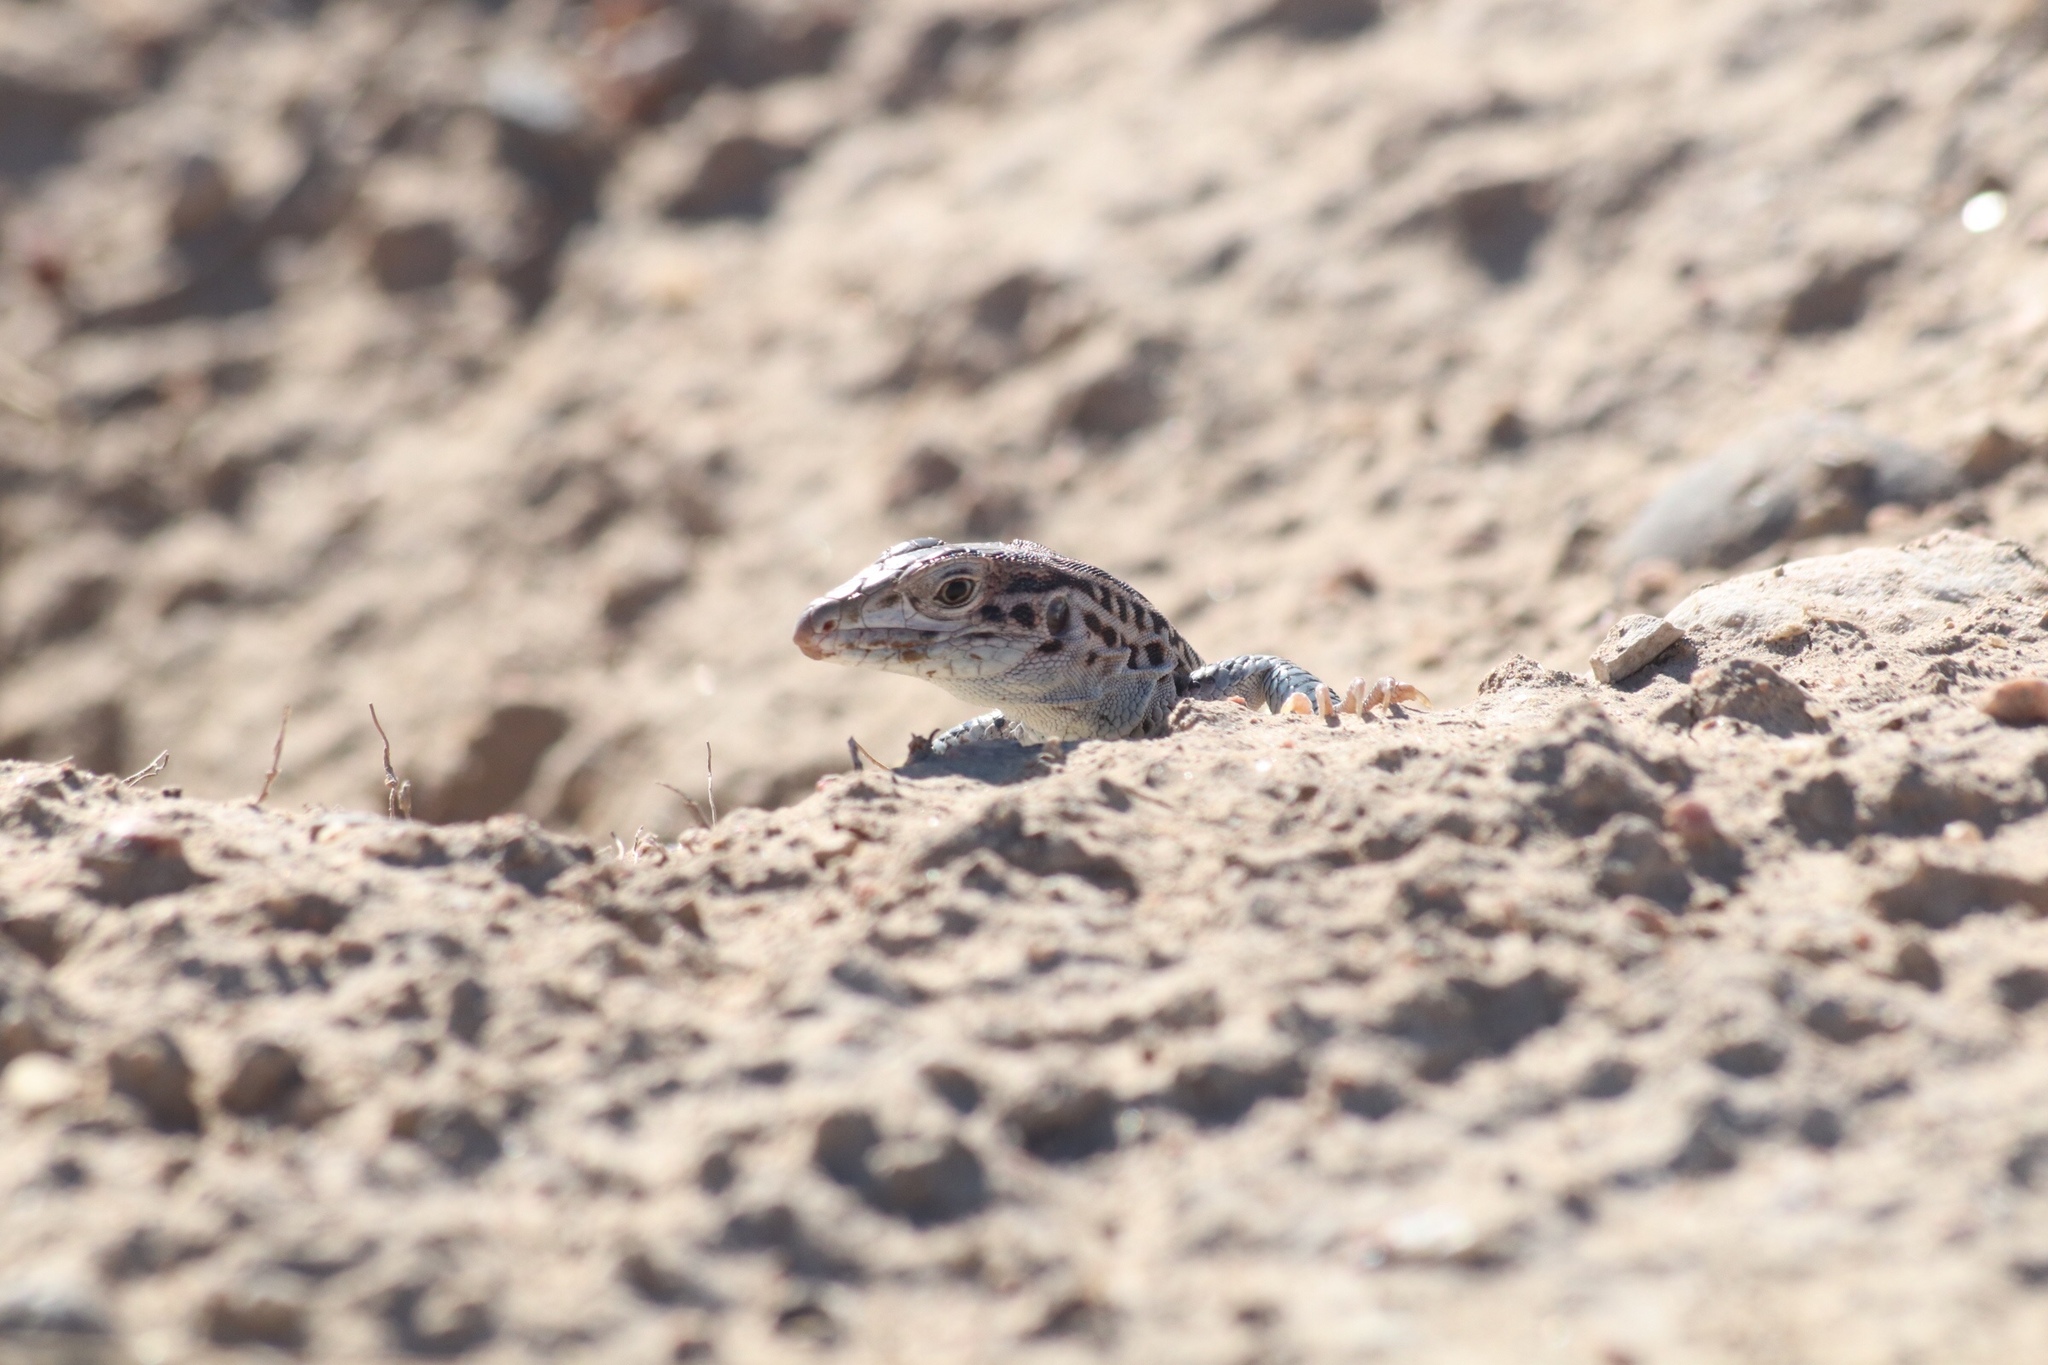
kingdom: Animalia
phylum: Chordata
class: Squamata
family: Teiidae
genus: Aspidoscelis
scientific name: Aspidoscelis neotesselatus
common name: Colorado checkered whiptail
